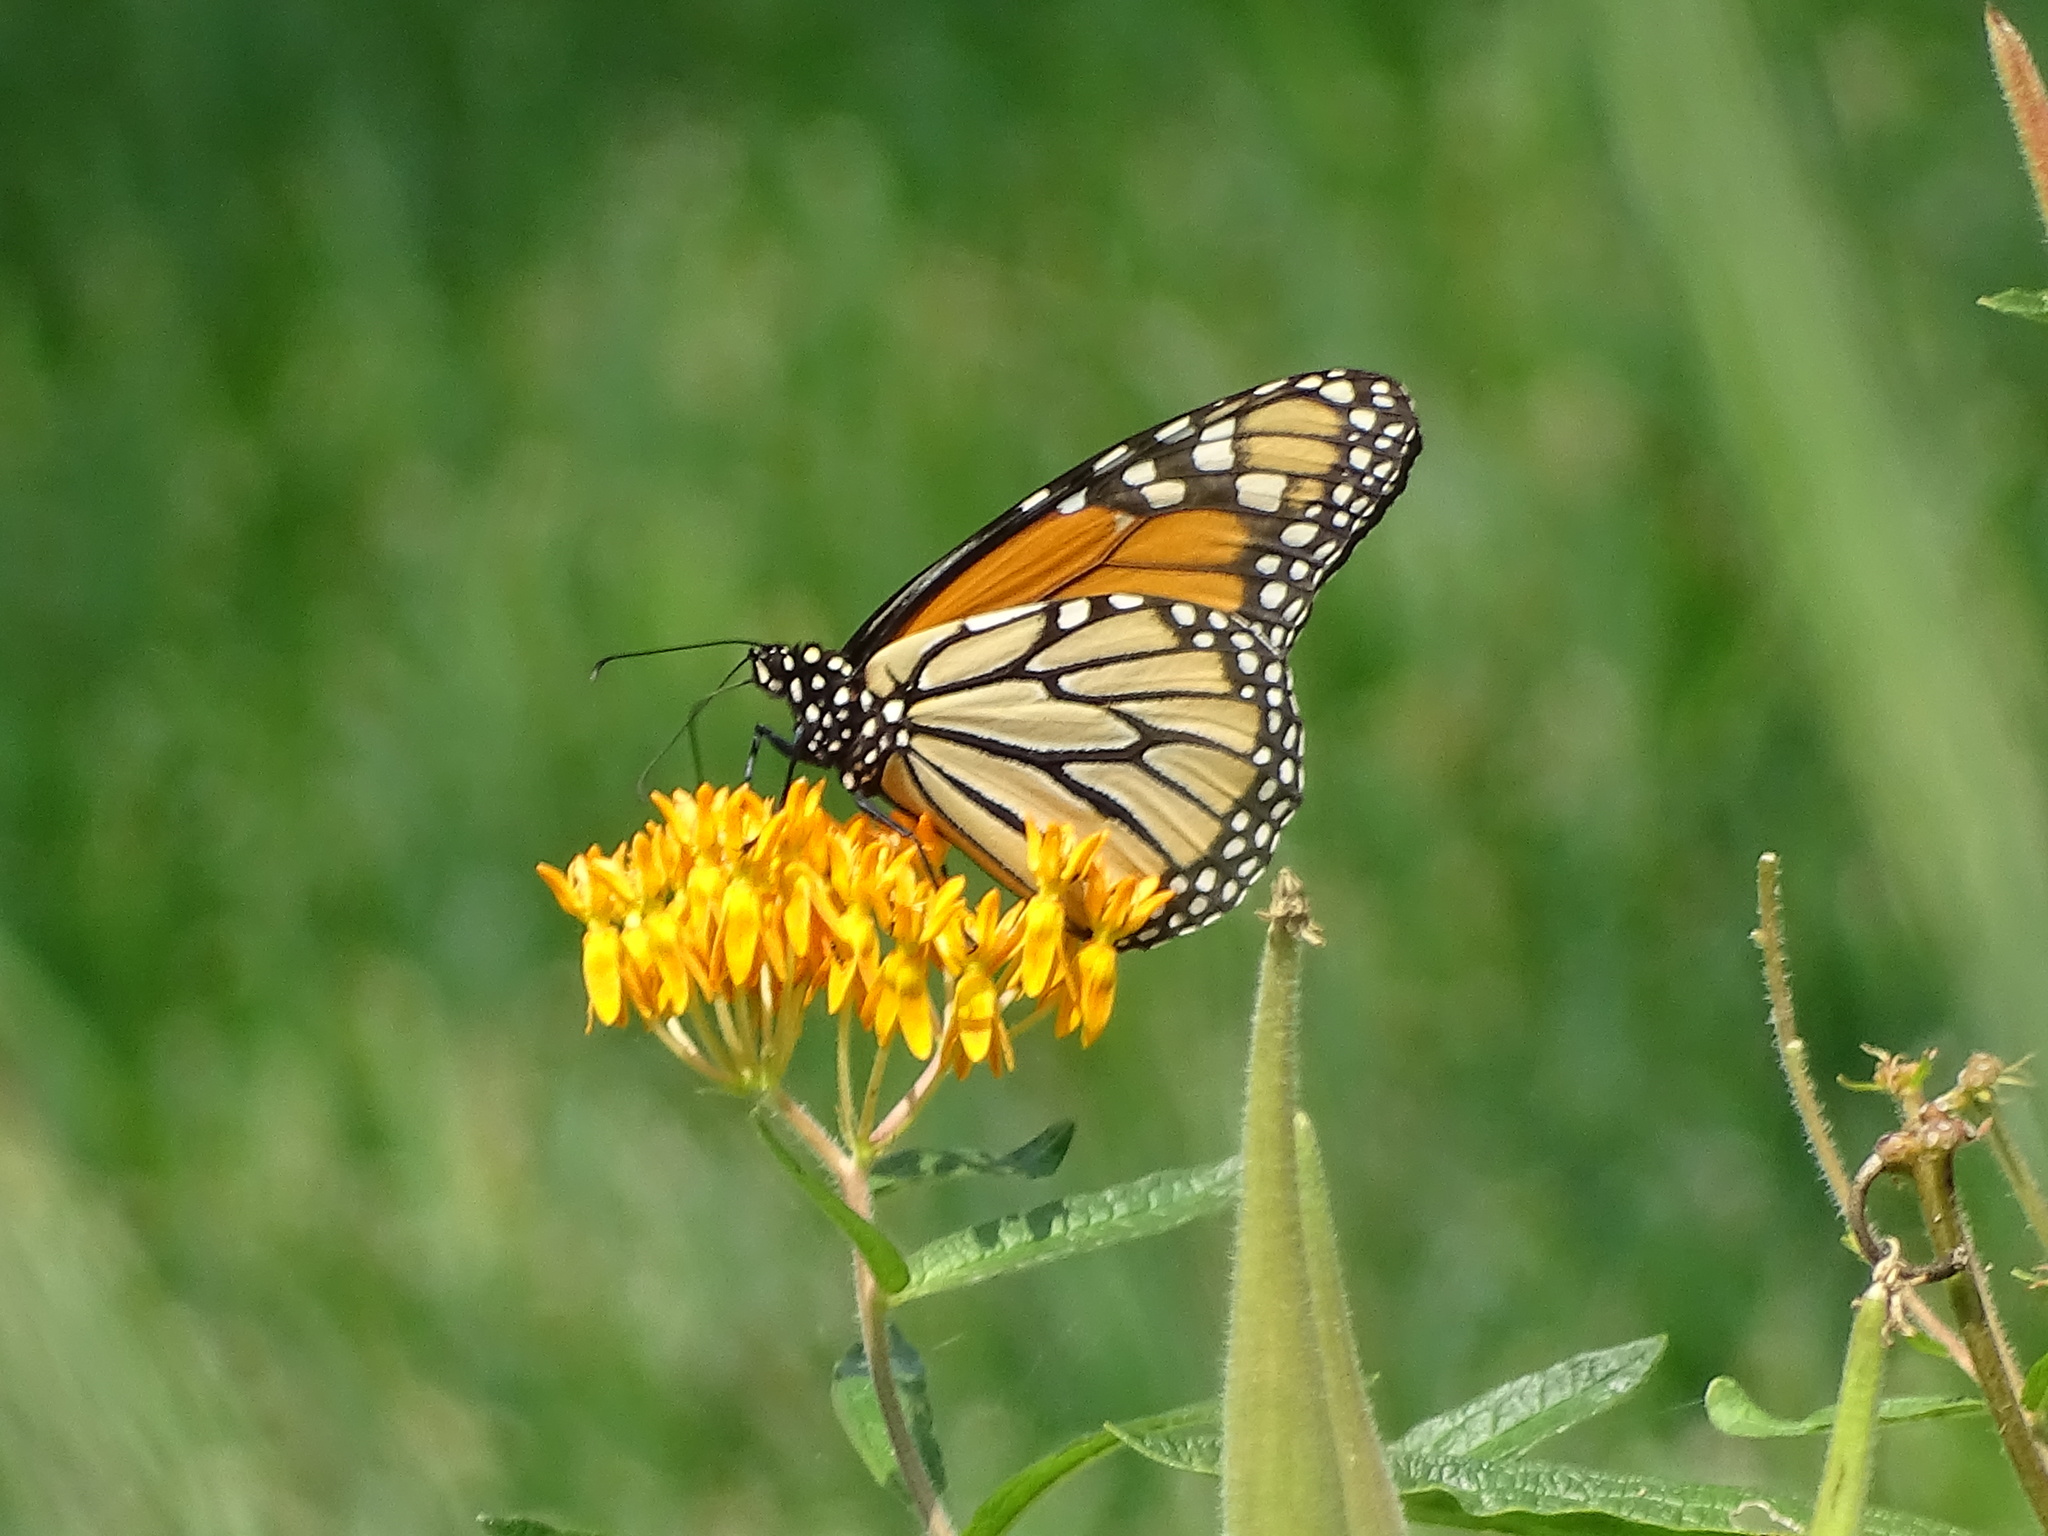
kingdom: Animalia
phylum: Arthropoda
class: Insecta
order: Lepidoptera
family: Nymphalidae
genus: Danaus
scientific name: Danaus plexippus
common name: Monarch
